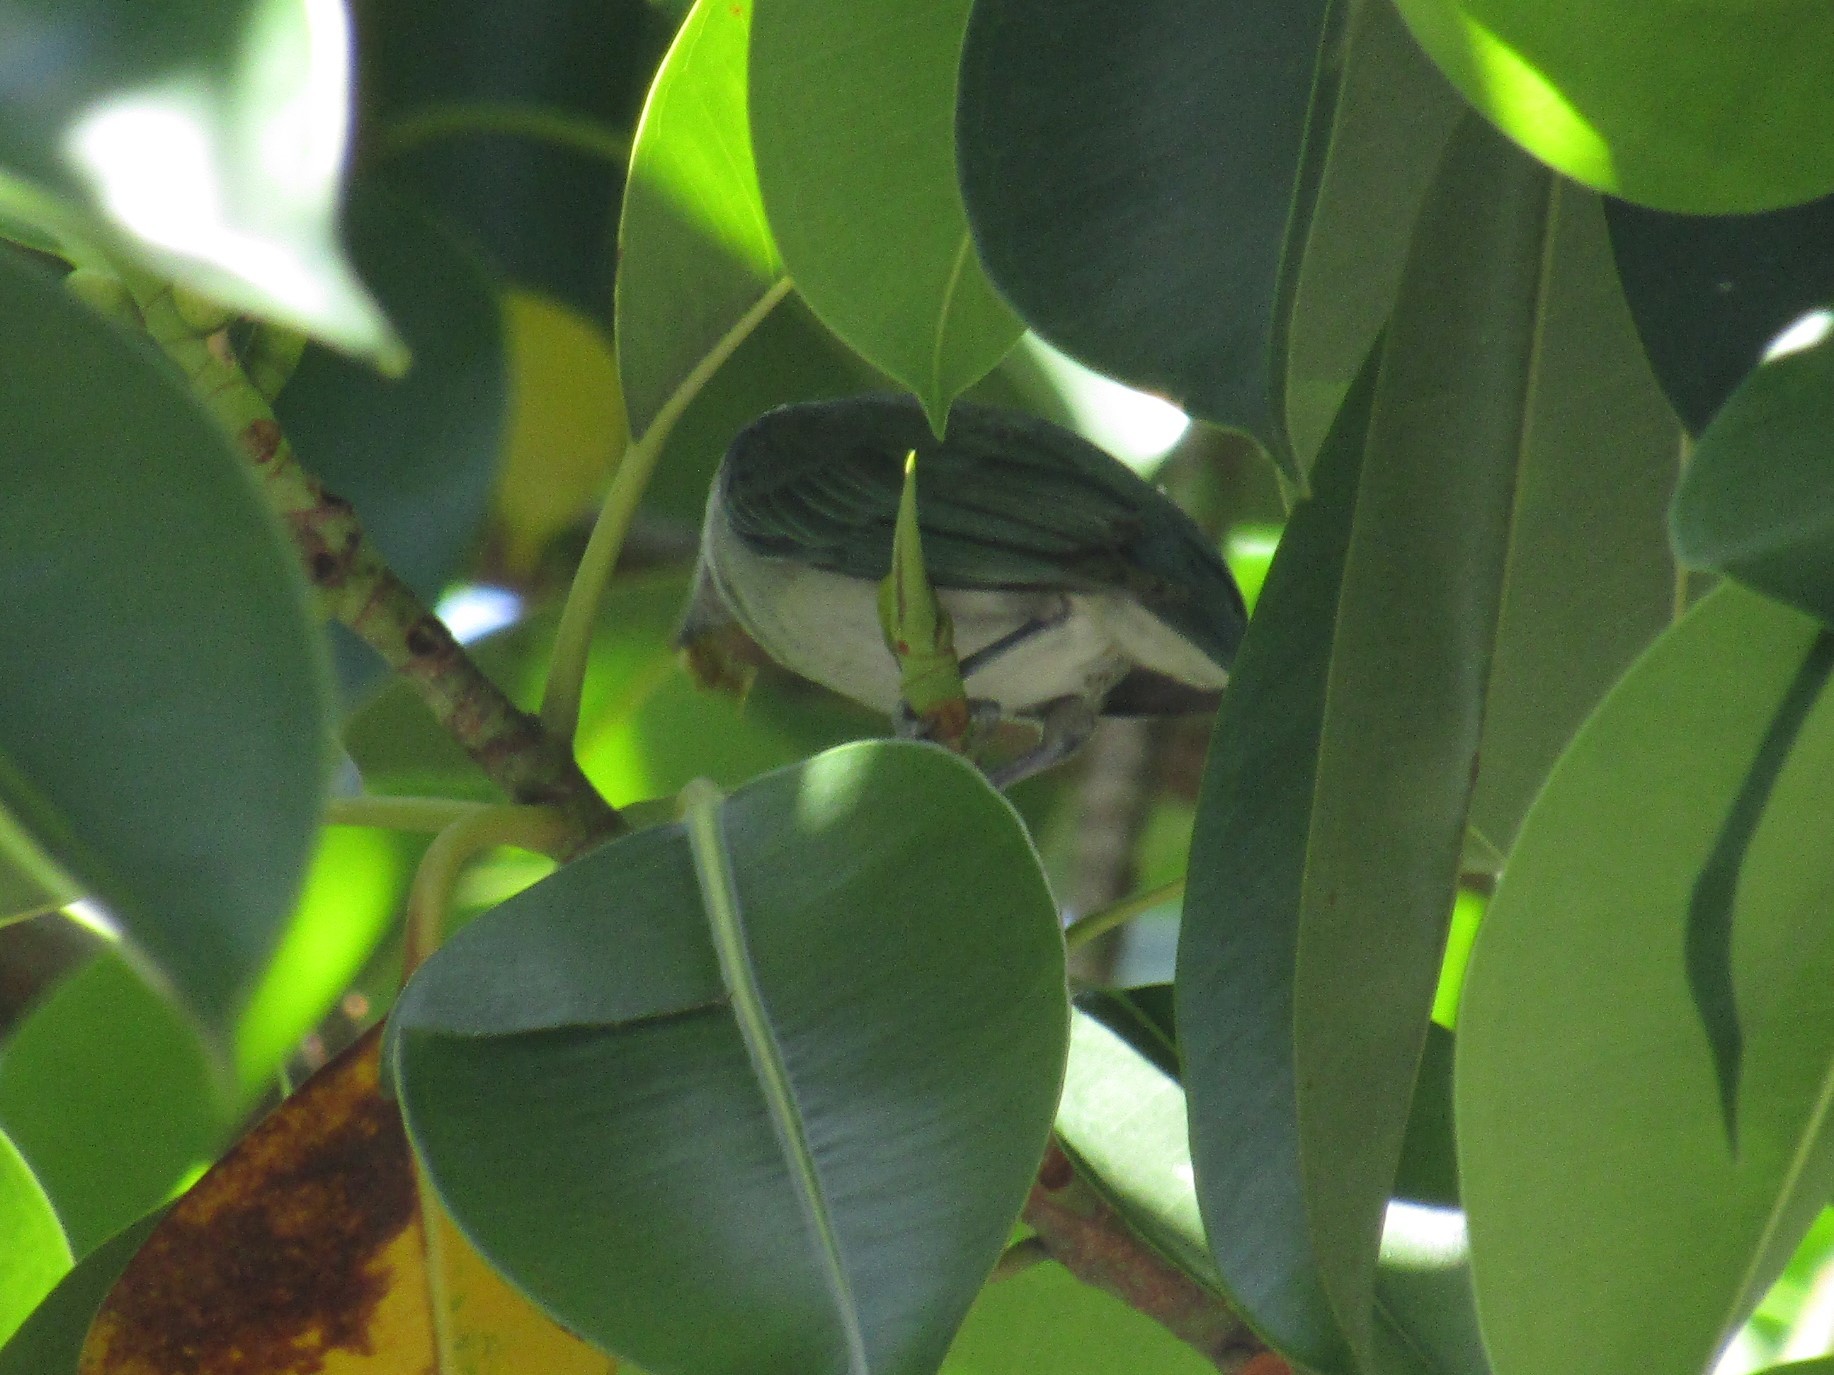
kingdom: Animalia
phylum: Chordata
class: Aves
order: Passeriformes
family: Thraupidae
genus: Thraupis
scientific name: Thraupis sayaca
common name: Sayaca tanager
